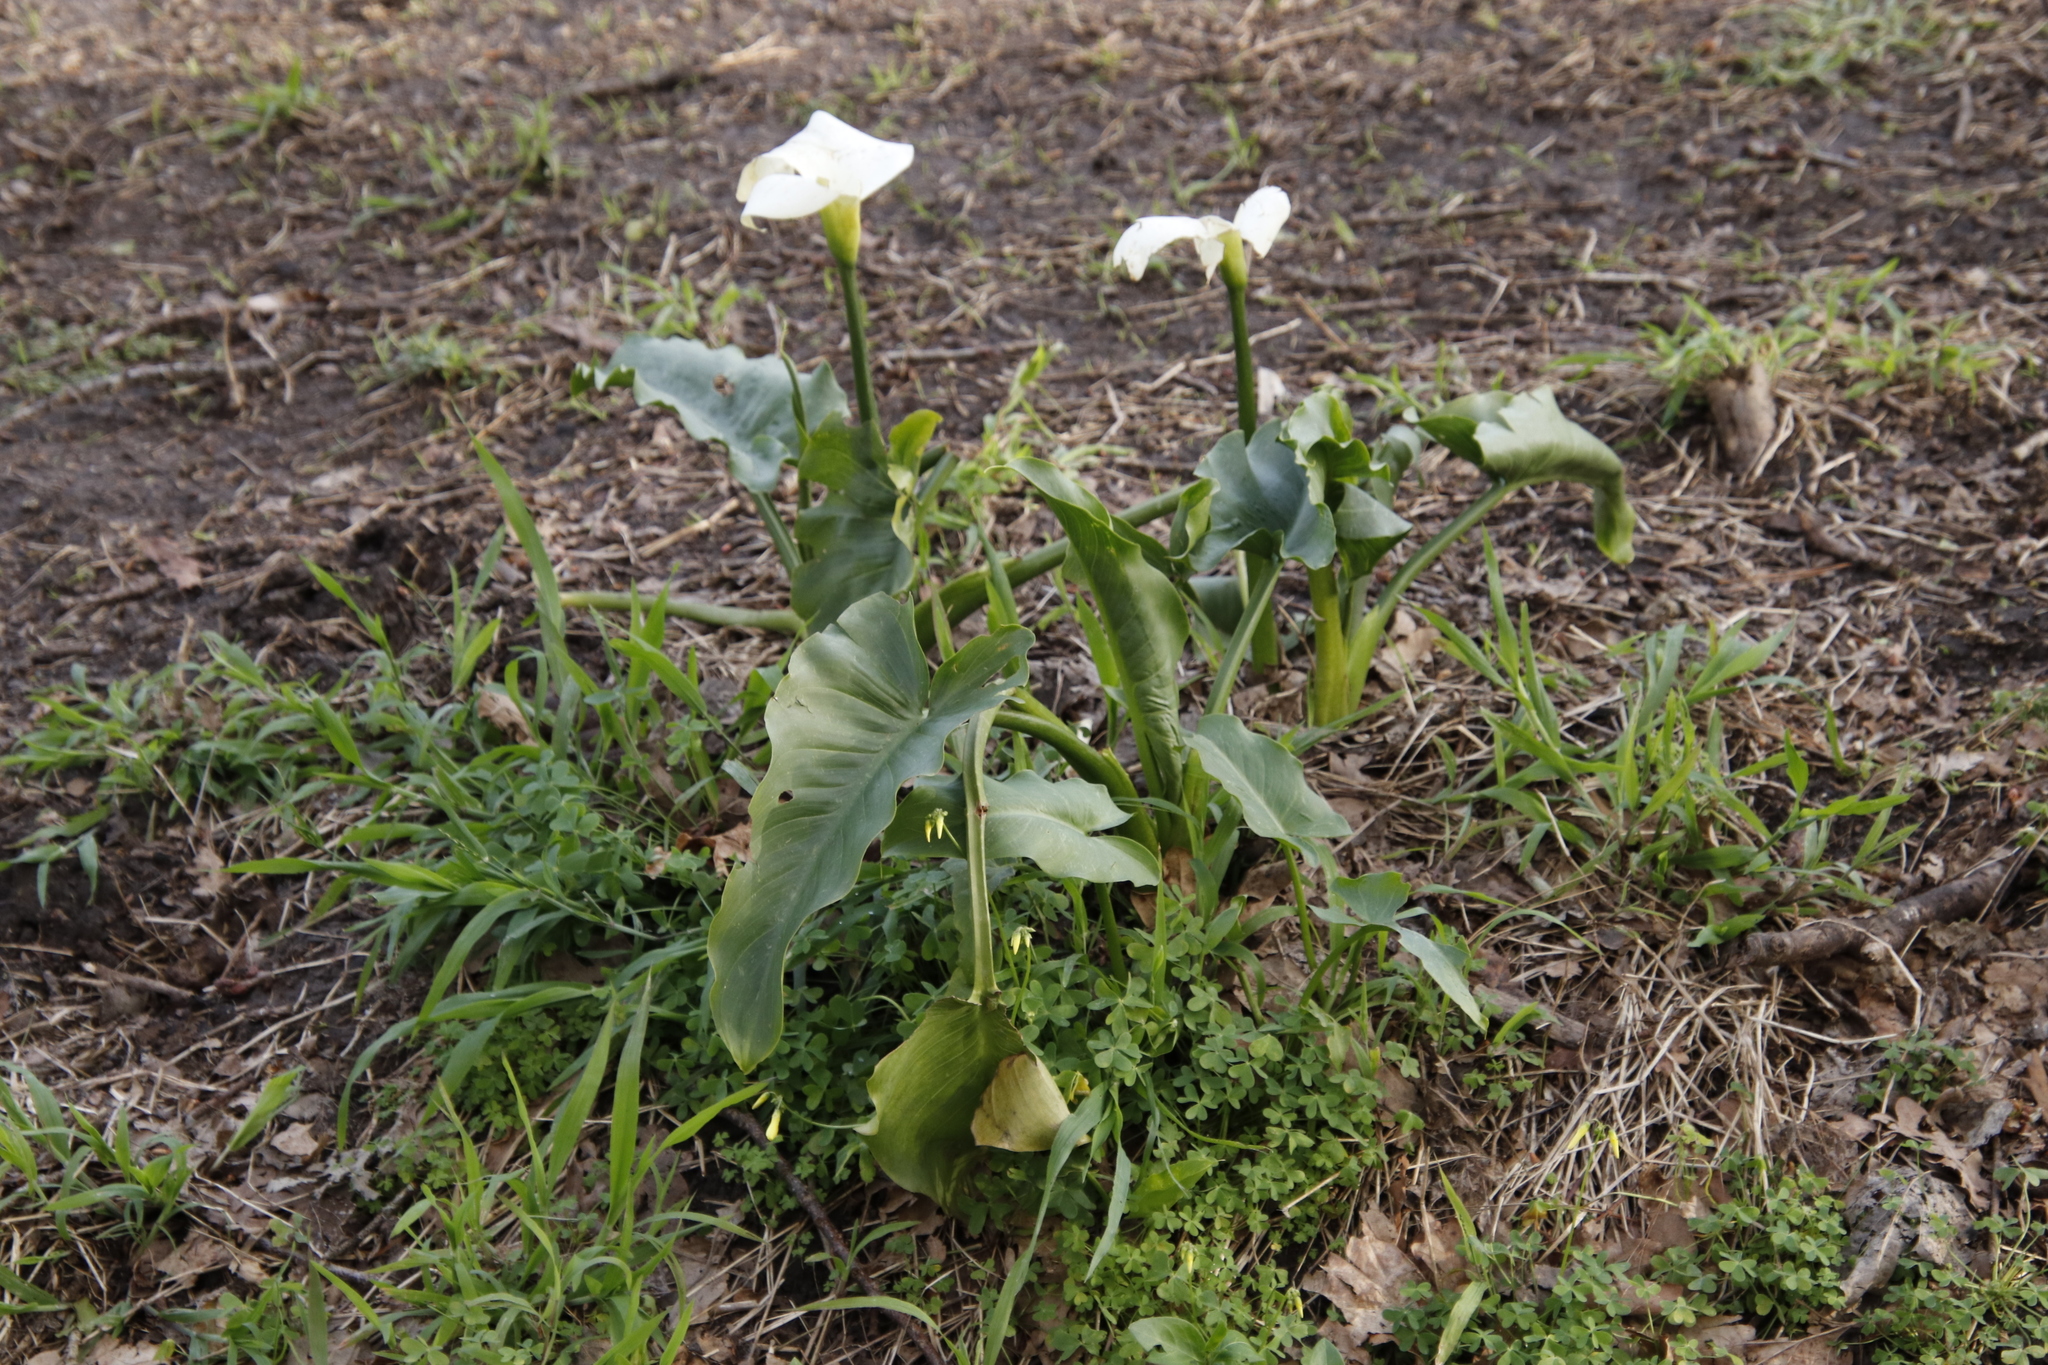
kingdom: Plantae
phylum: Tracheophyta
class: Liliopsida
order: Alismatales
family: Araceae
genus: Zantedeschia
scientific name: Zantedeschia aethiopica
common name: Altar-lily
